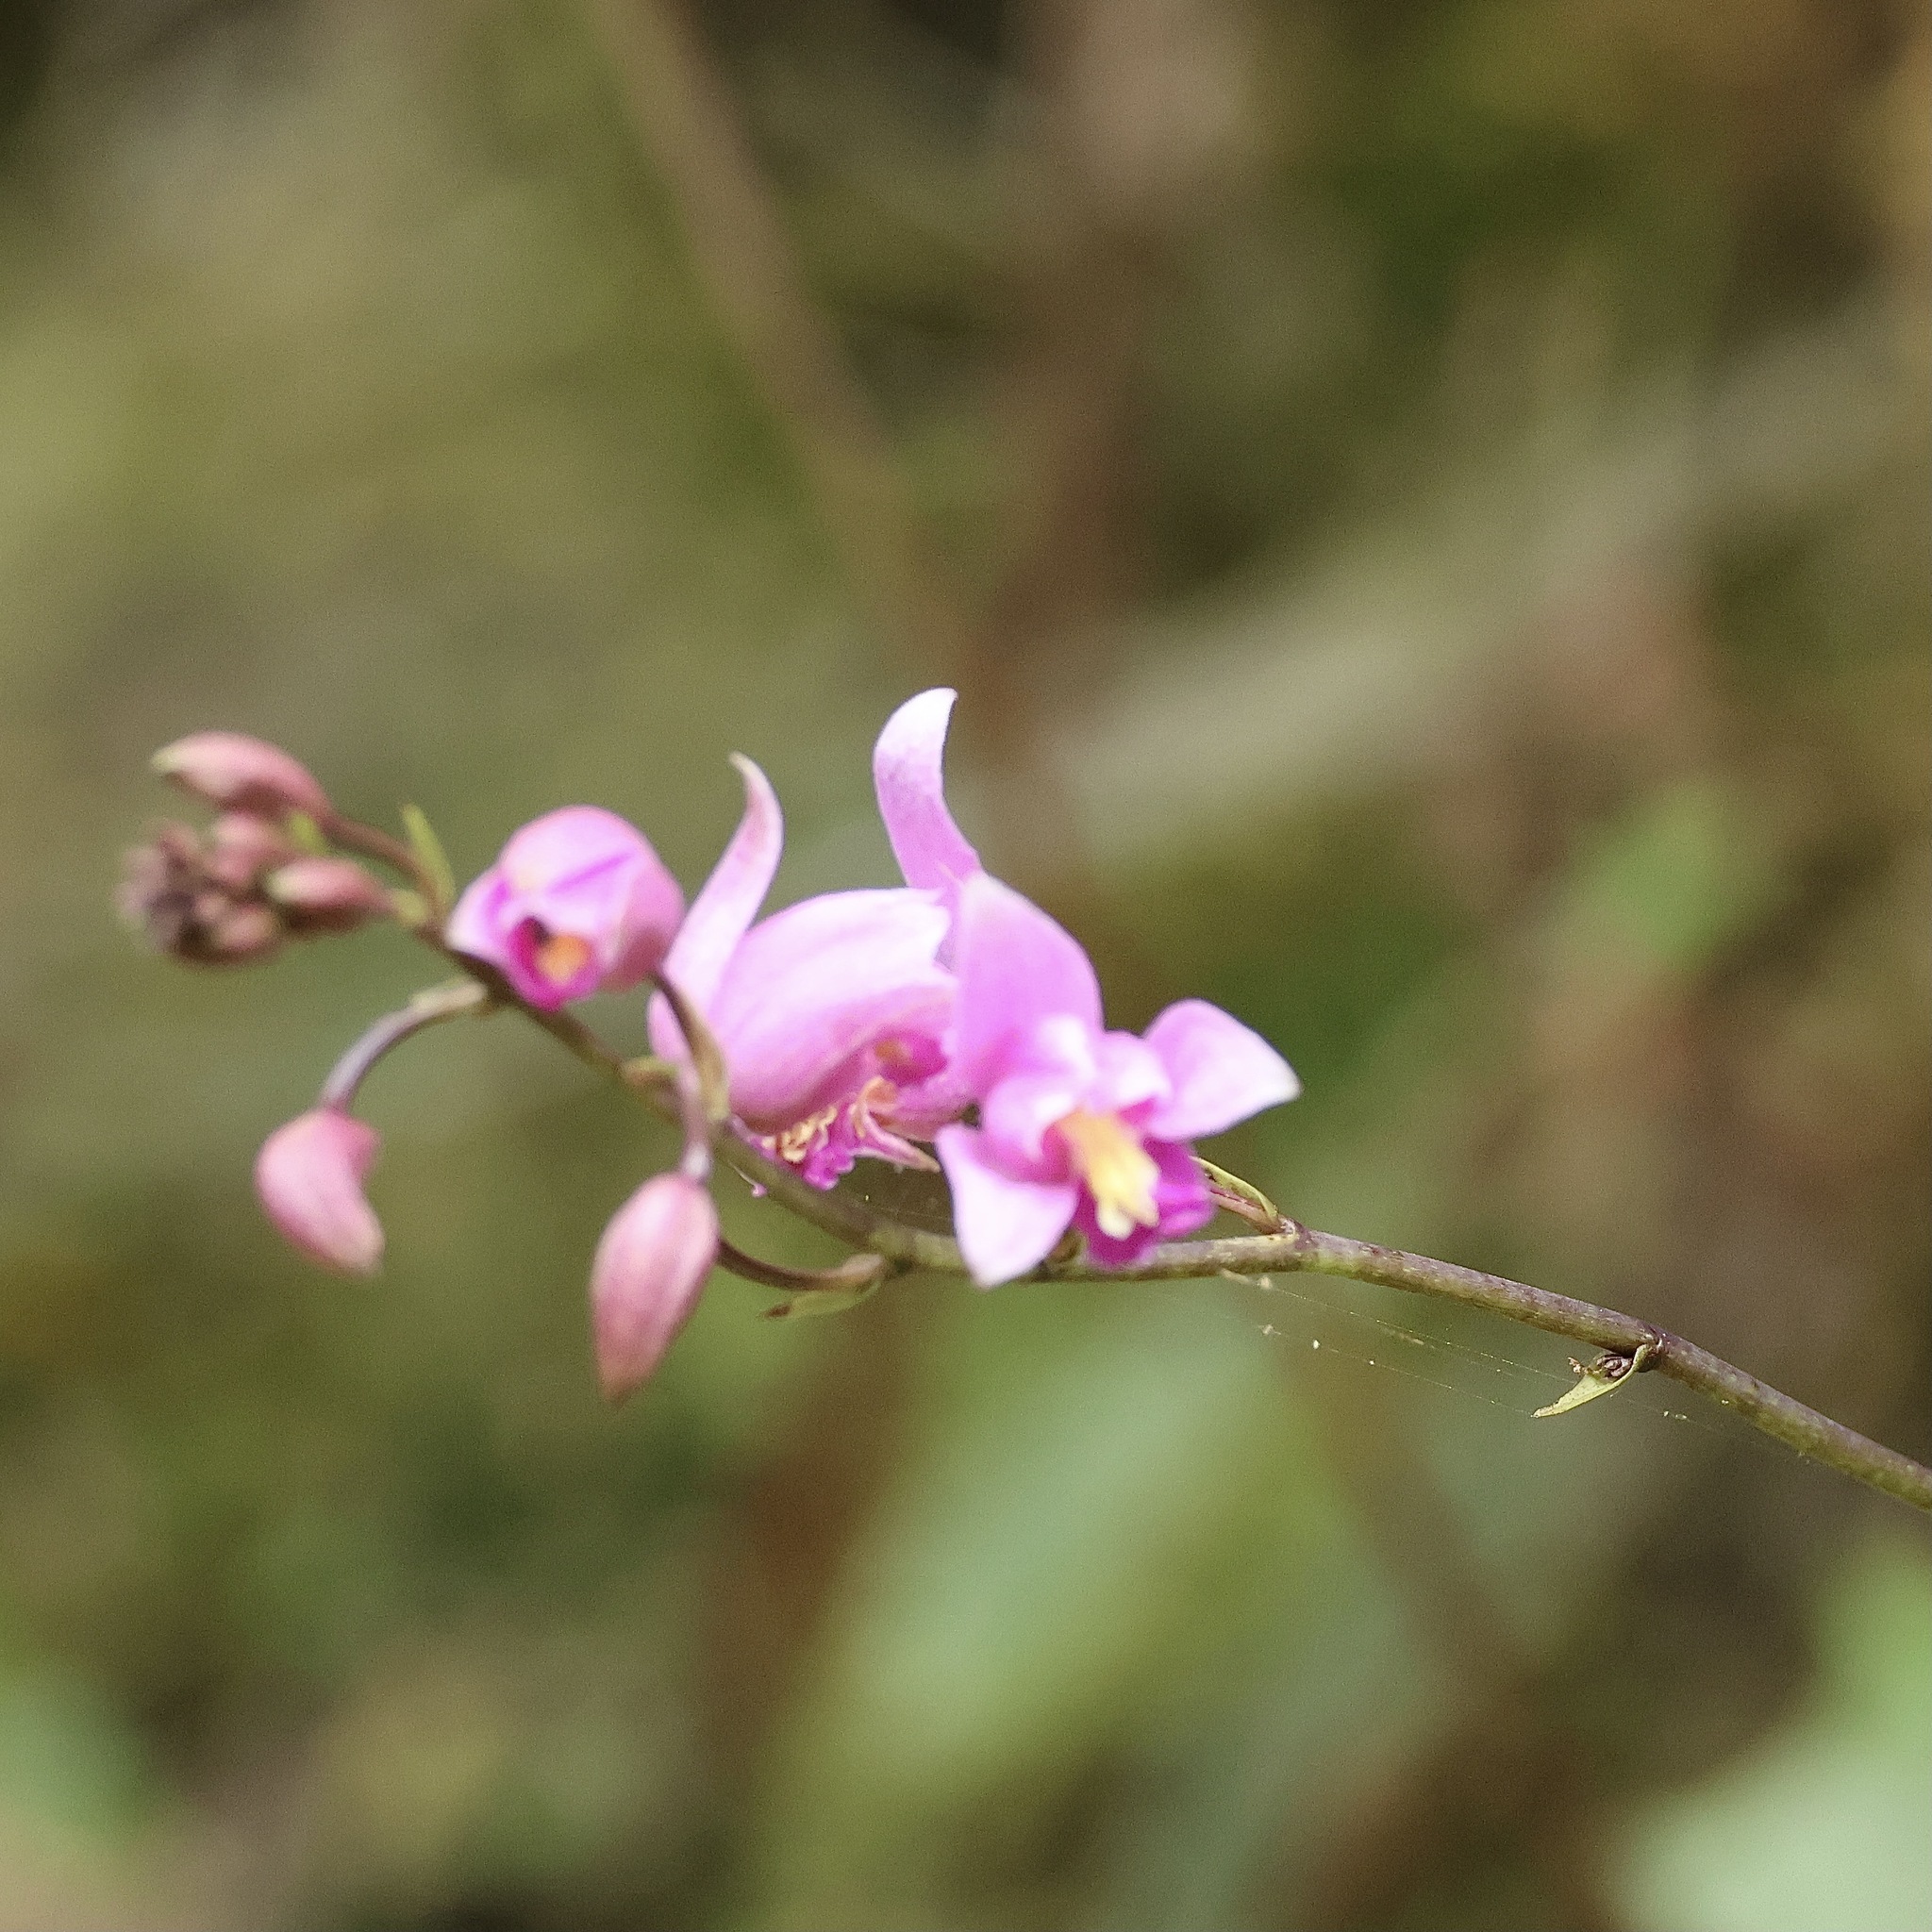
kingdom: Plantae
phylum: Tracheophyta
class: Liliopsida
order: Asparagales
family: Orchidaceae
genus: Bletia
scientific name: Bletia purpurea
